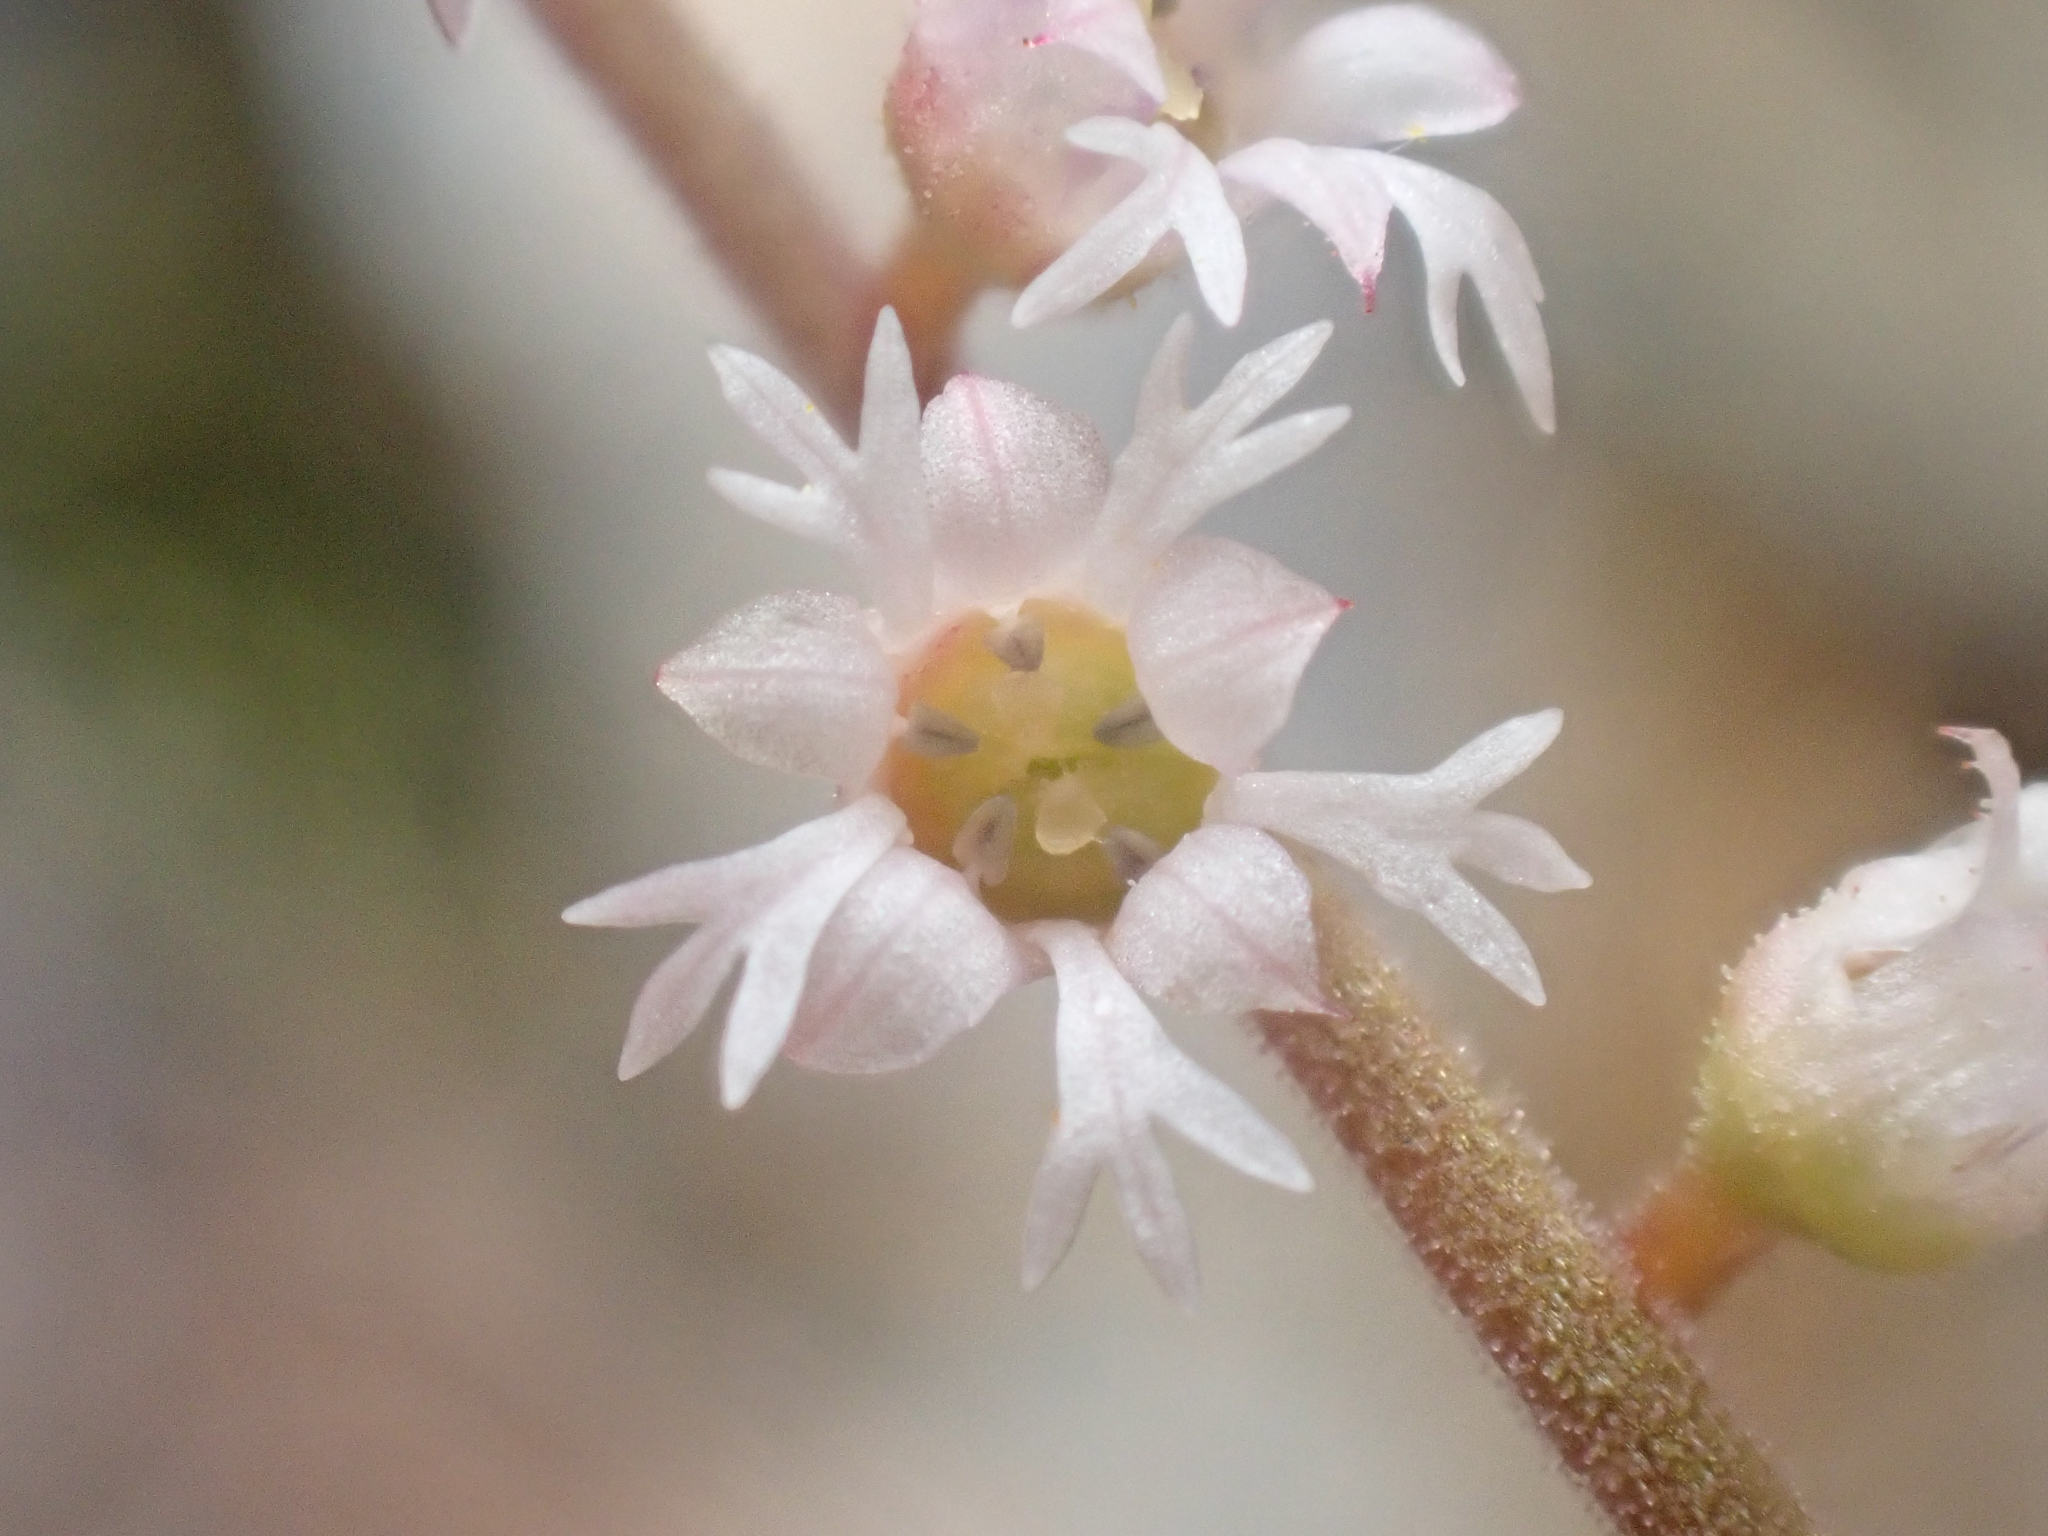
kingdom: Plantae
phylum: Tracheophyta
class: Magnoliopsida
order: Saxifragales
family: Saxifragaceae
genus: Ozomelis
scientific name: Ozomelis trifida
